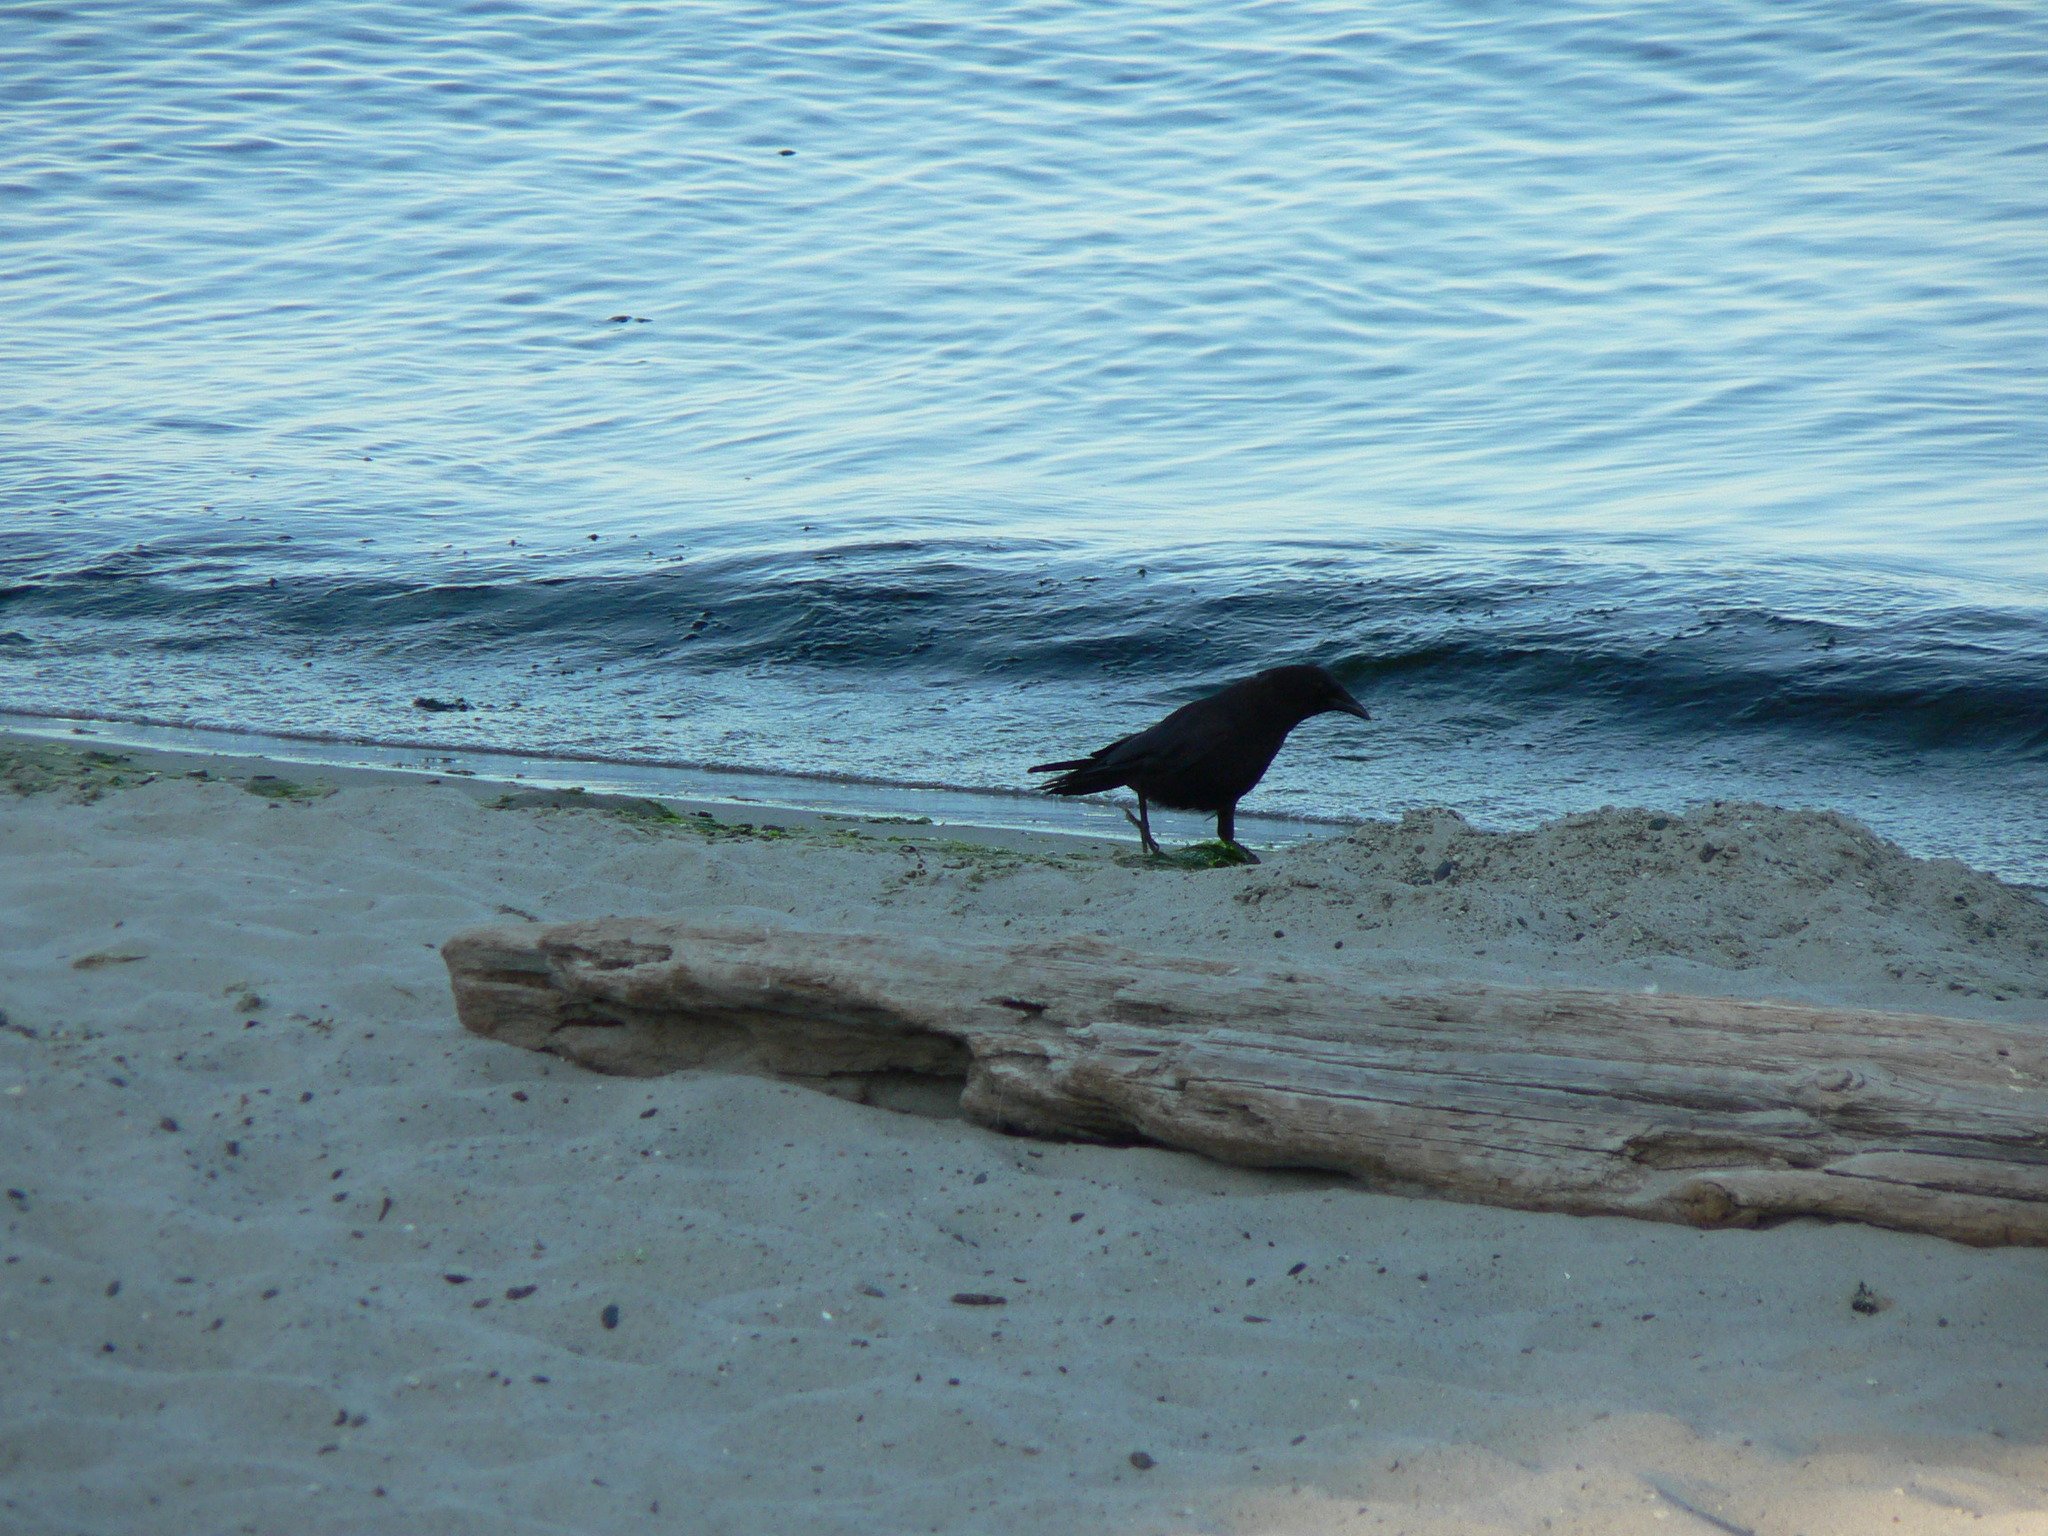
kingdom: Animalia
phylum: Chordata
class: Aves
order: Passeriformes
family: Corvidae
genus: Corvus
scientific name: Corvus brachyrhynchos
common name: American crow
